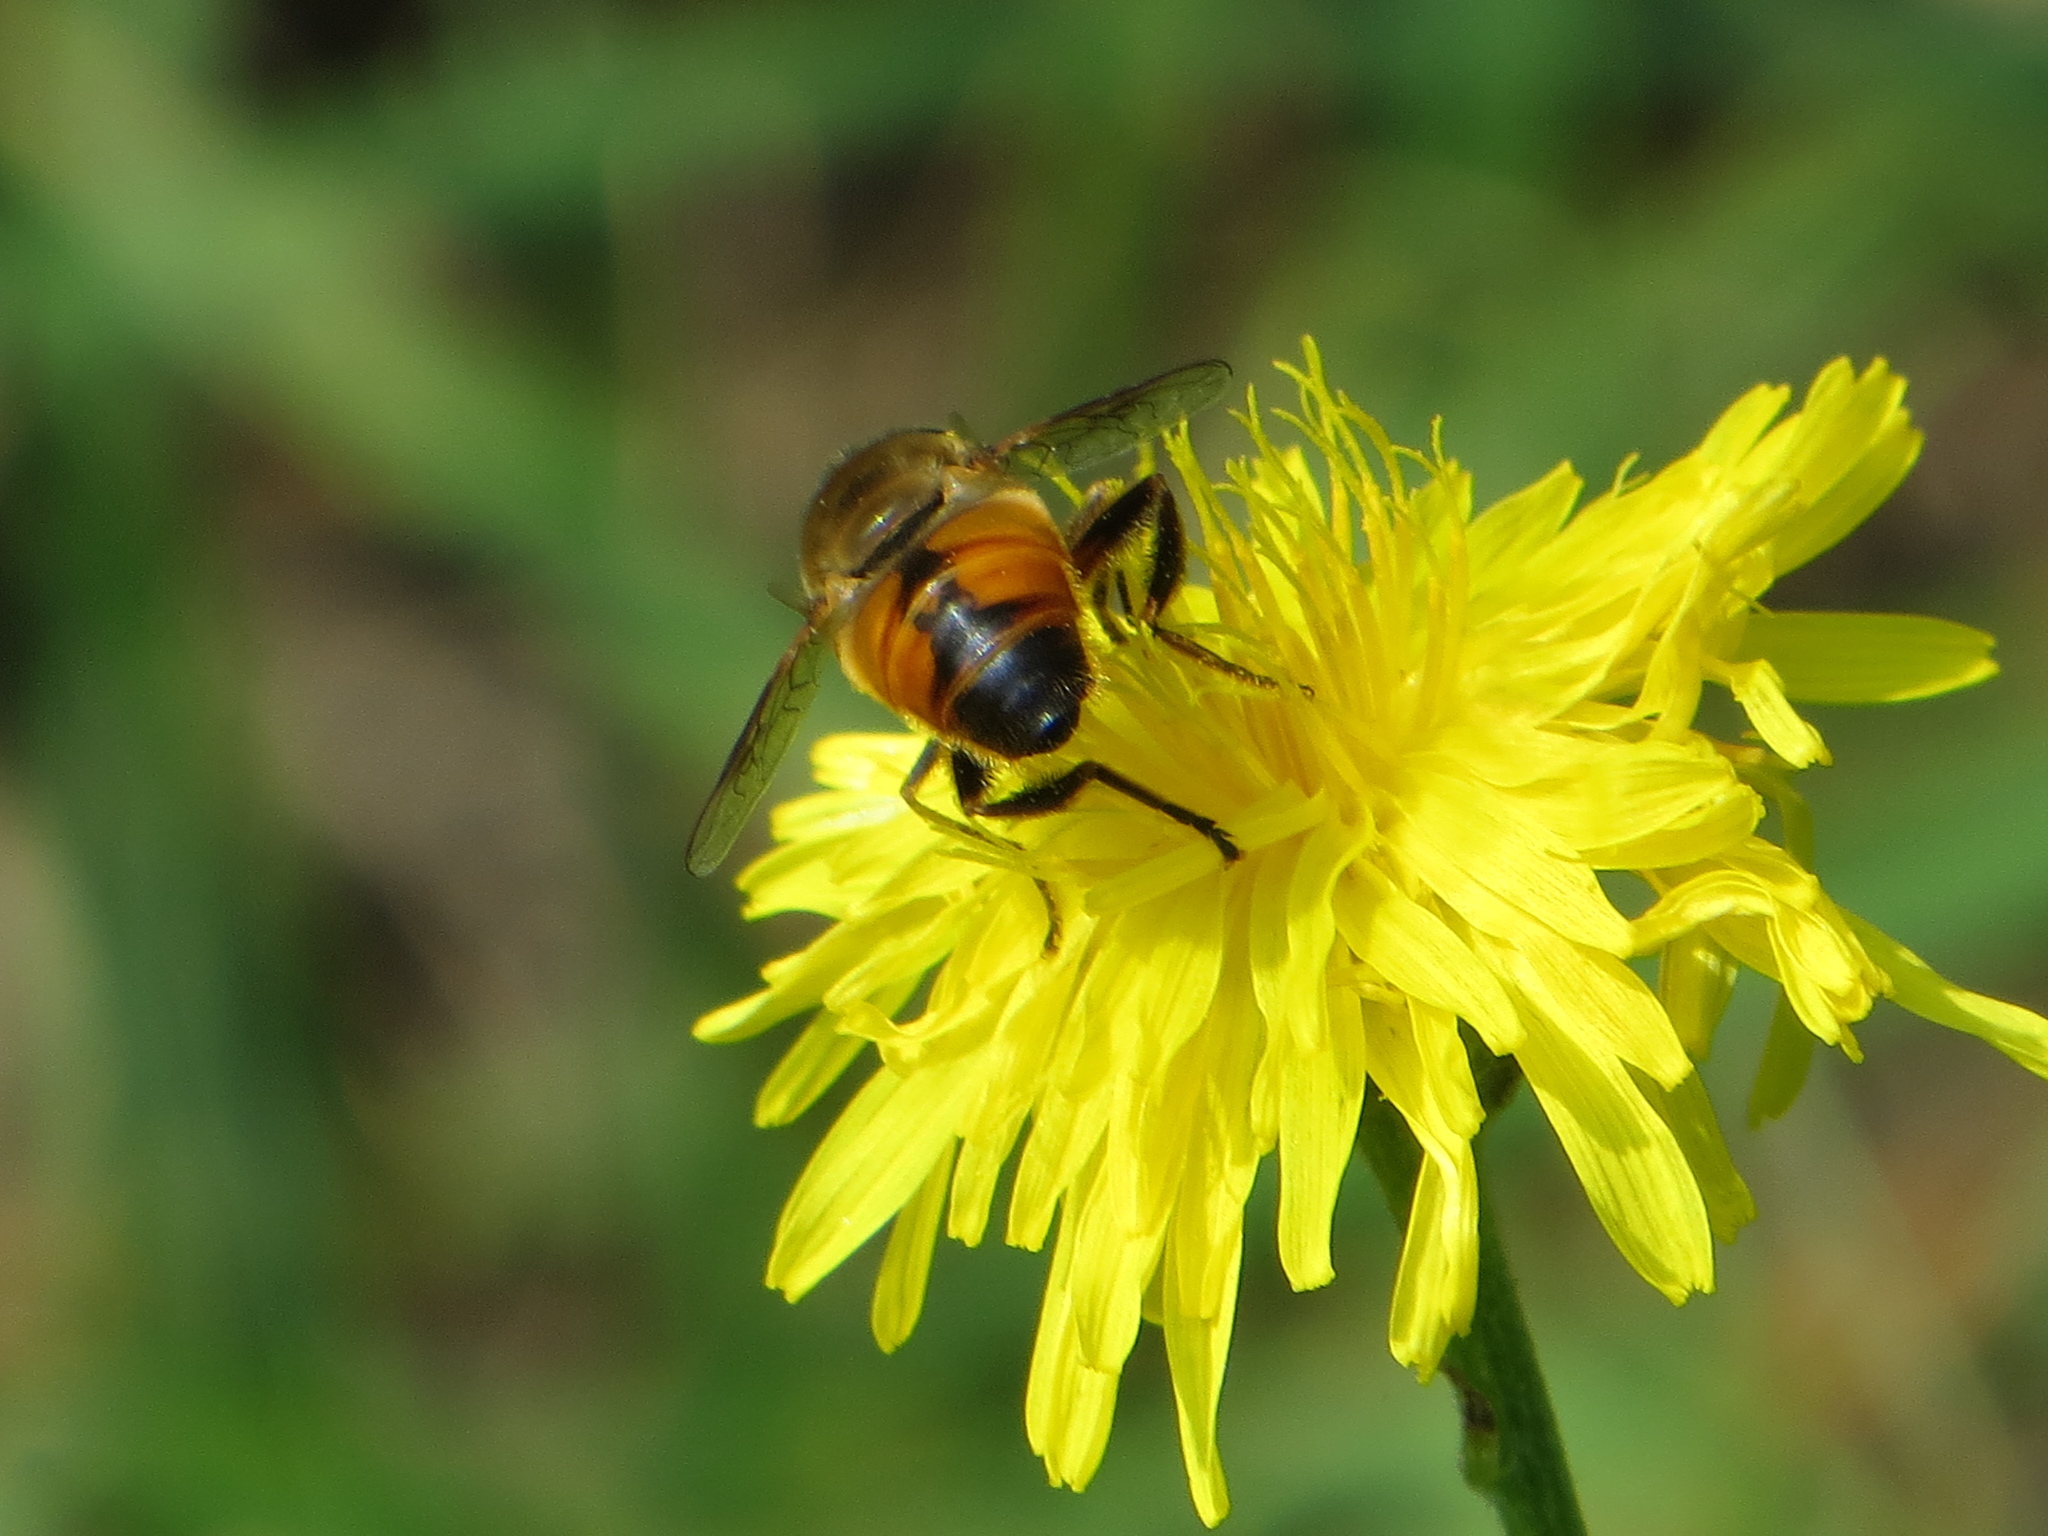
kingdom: Animalia
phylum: Arthropoda
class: Insecta
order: Diptera
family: Syrphidae
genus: Eristalis
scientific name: Eristalis tenax
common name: Drone fly
